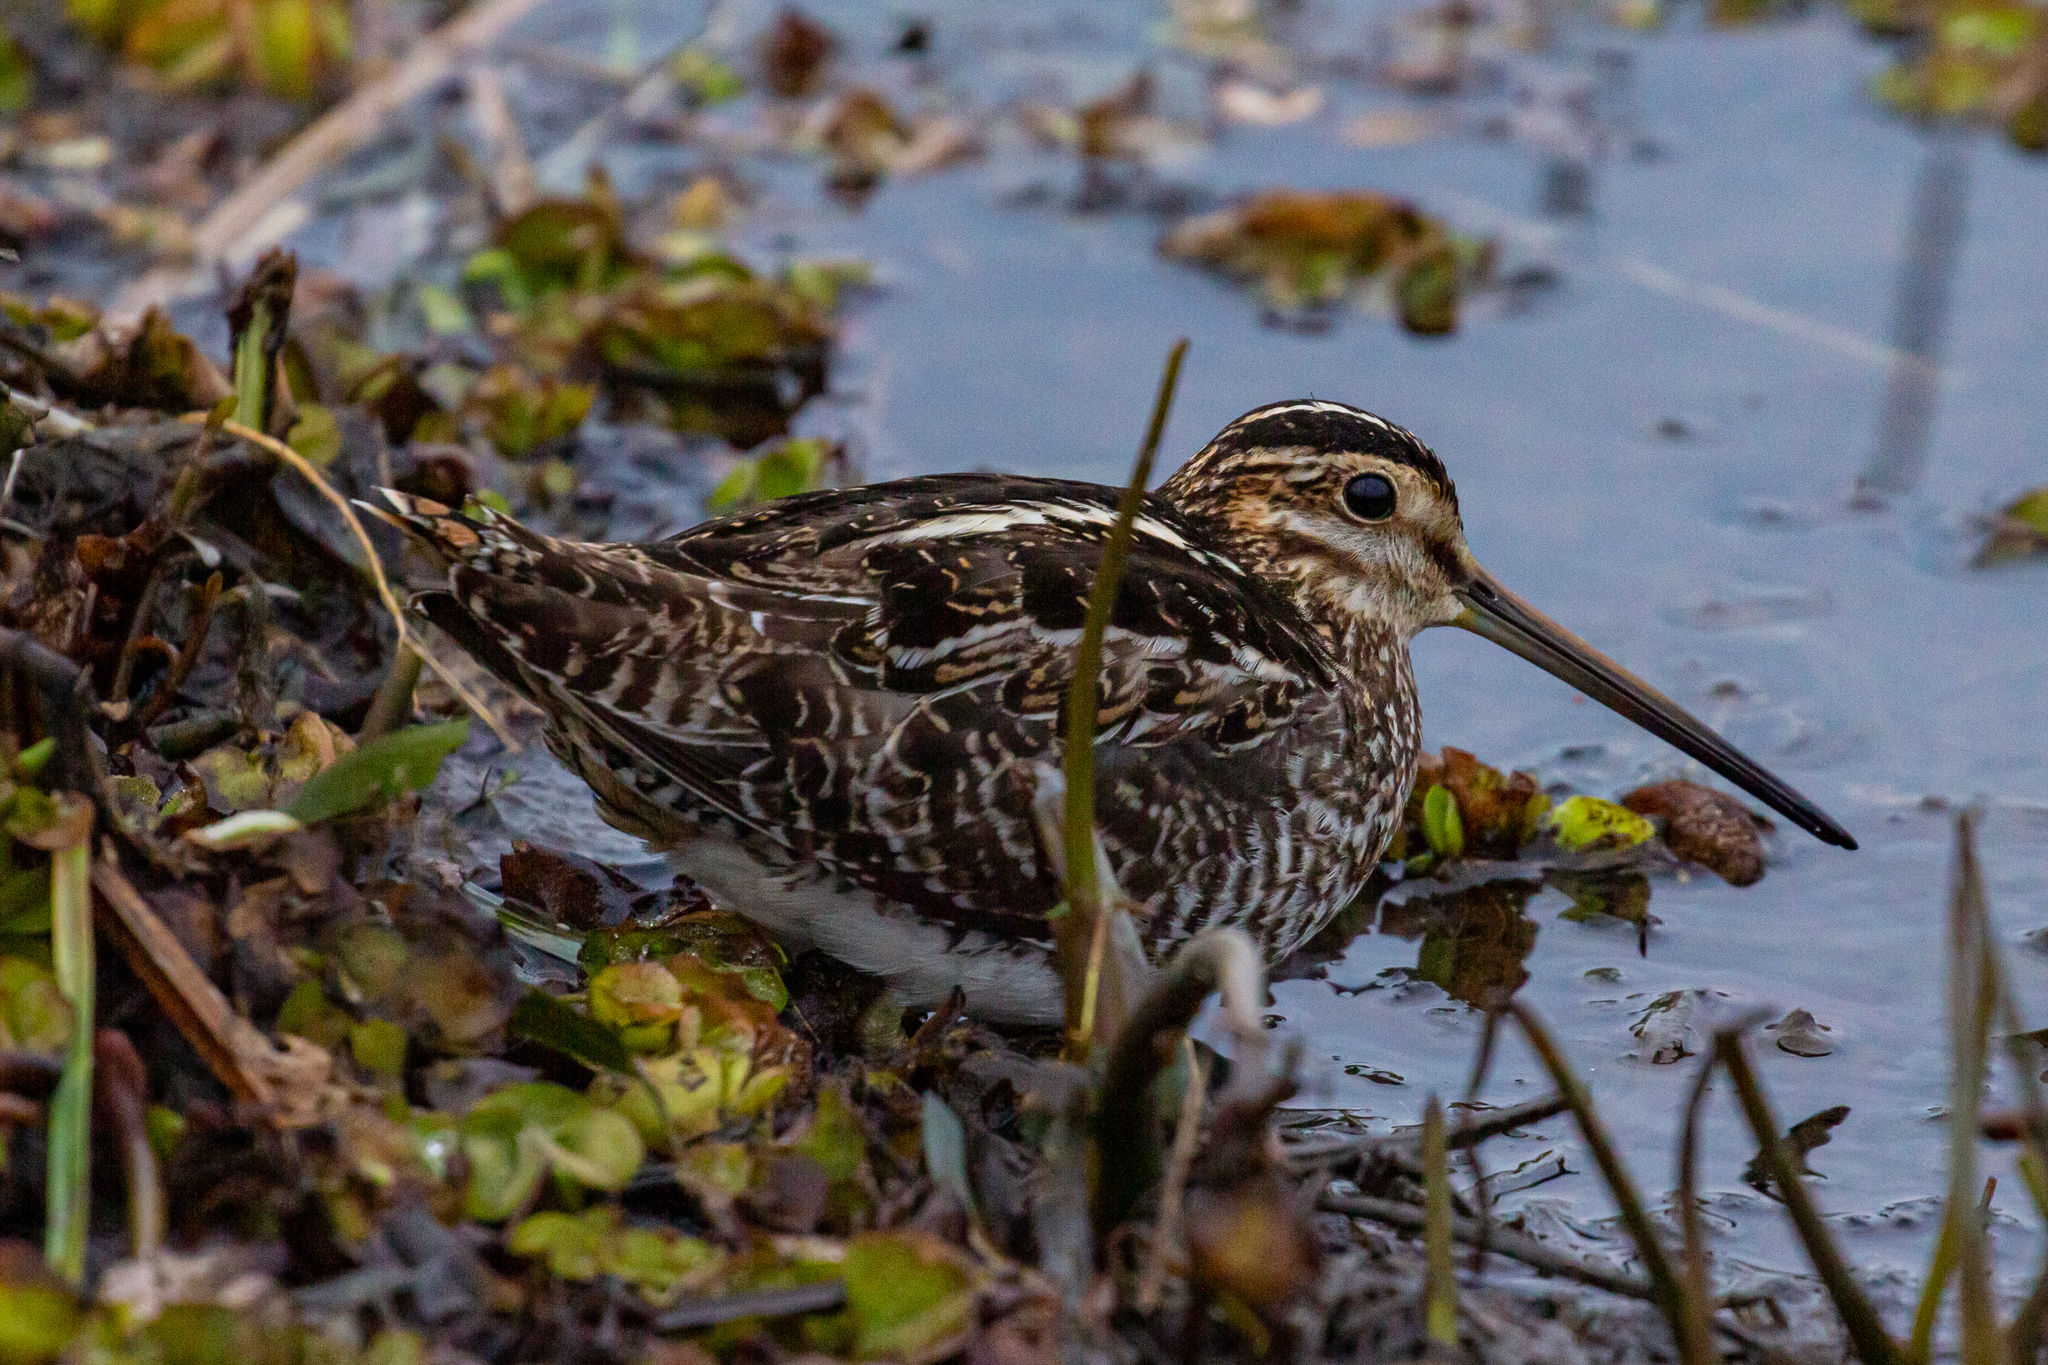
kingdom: Animalia
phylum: Chordata
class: Aves
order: Charadriiformes
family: Scolopacidae
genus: Gallinago
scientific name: Gallinago delicata
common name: Wilson's snipe
